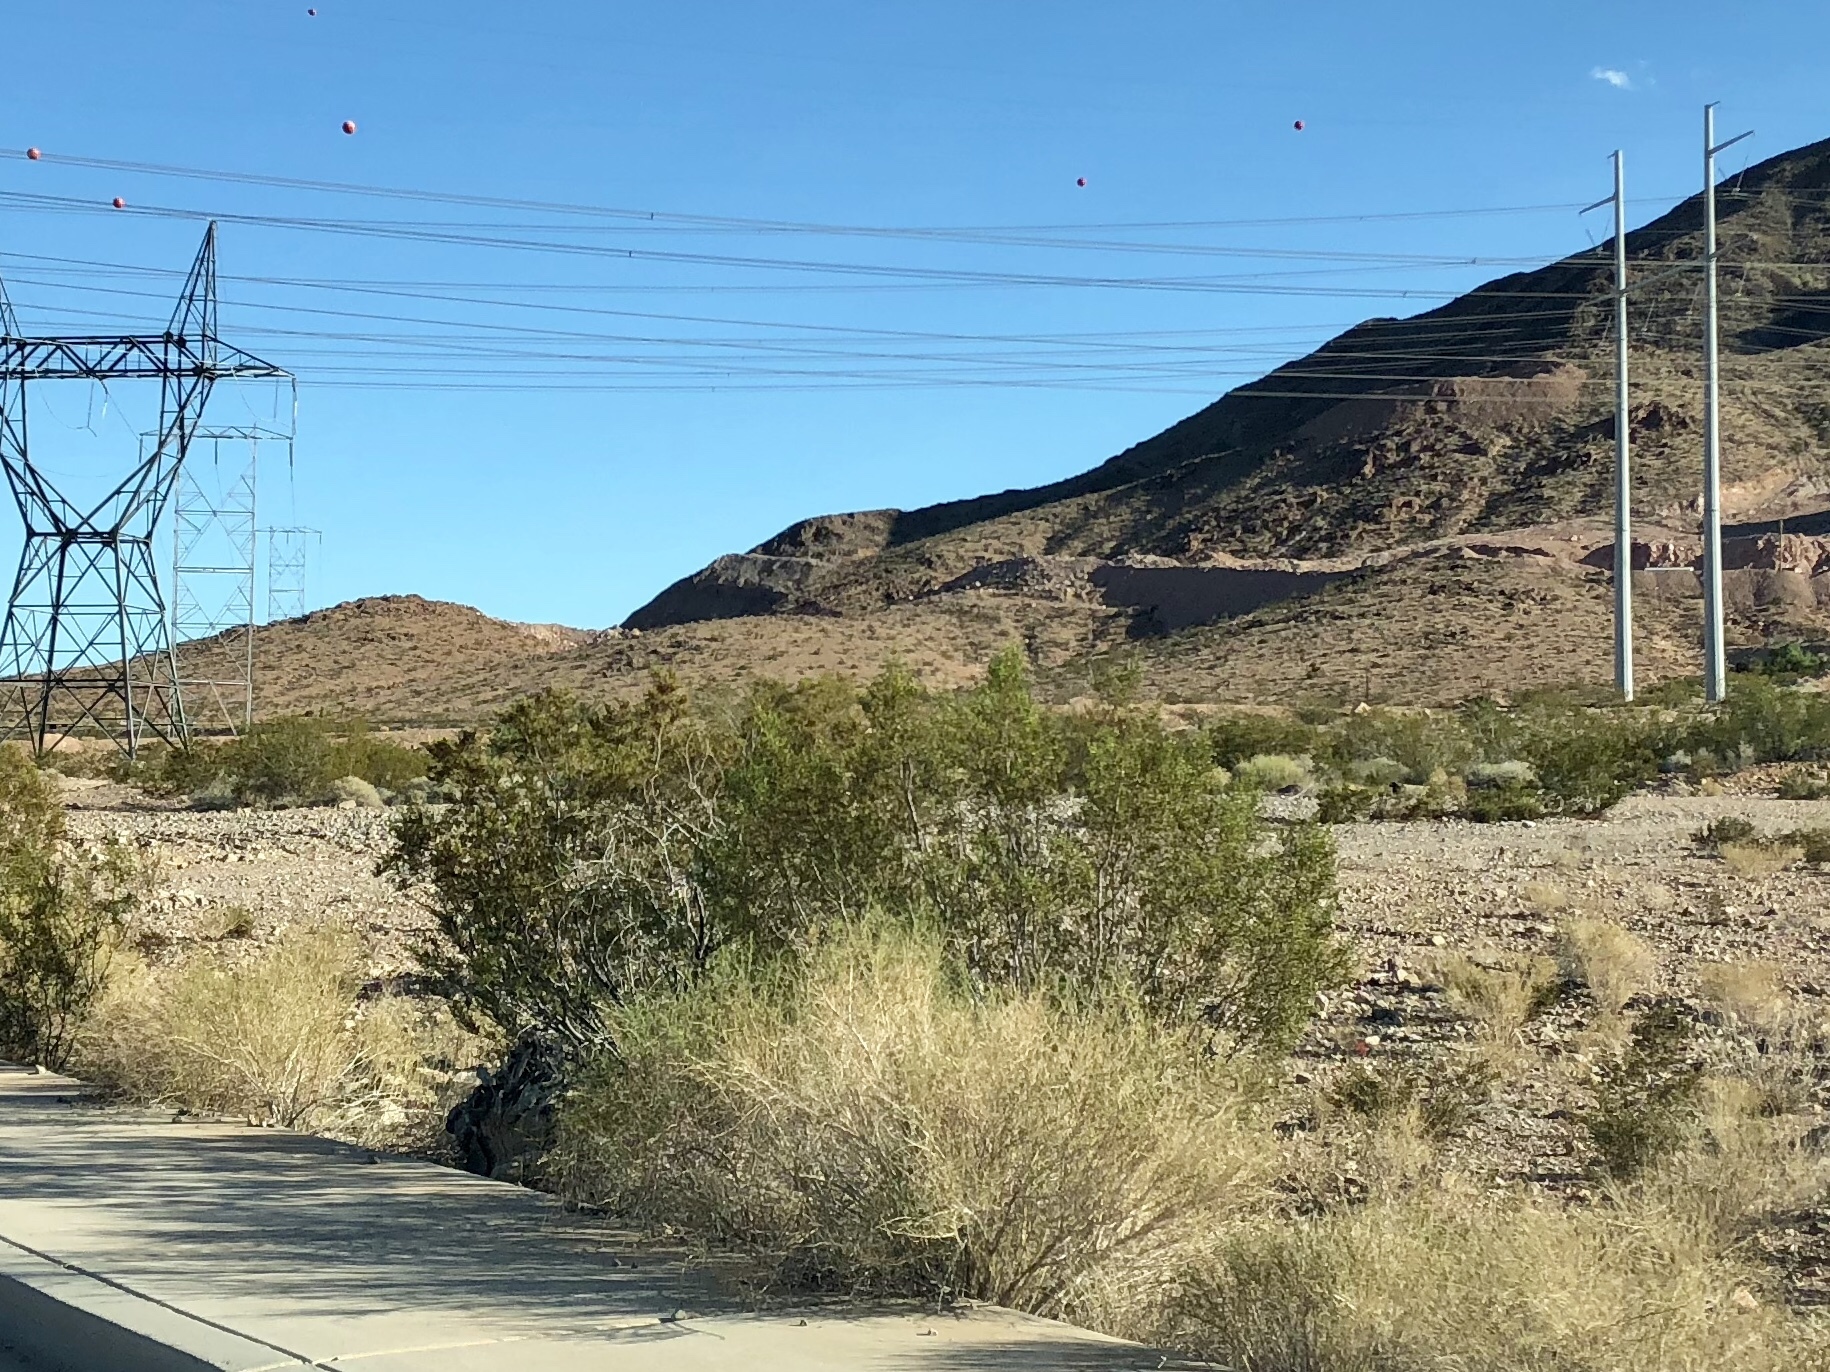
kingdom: Plantae
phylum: Tracheophyta
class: Magnoliopsida
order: Zygophyllales
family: Zygophyllaceae
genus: Larrea
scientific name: Larrea tridentata
